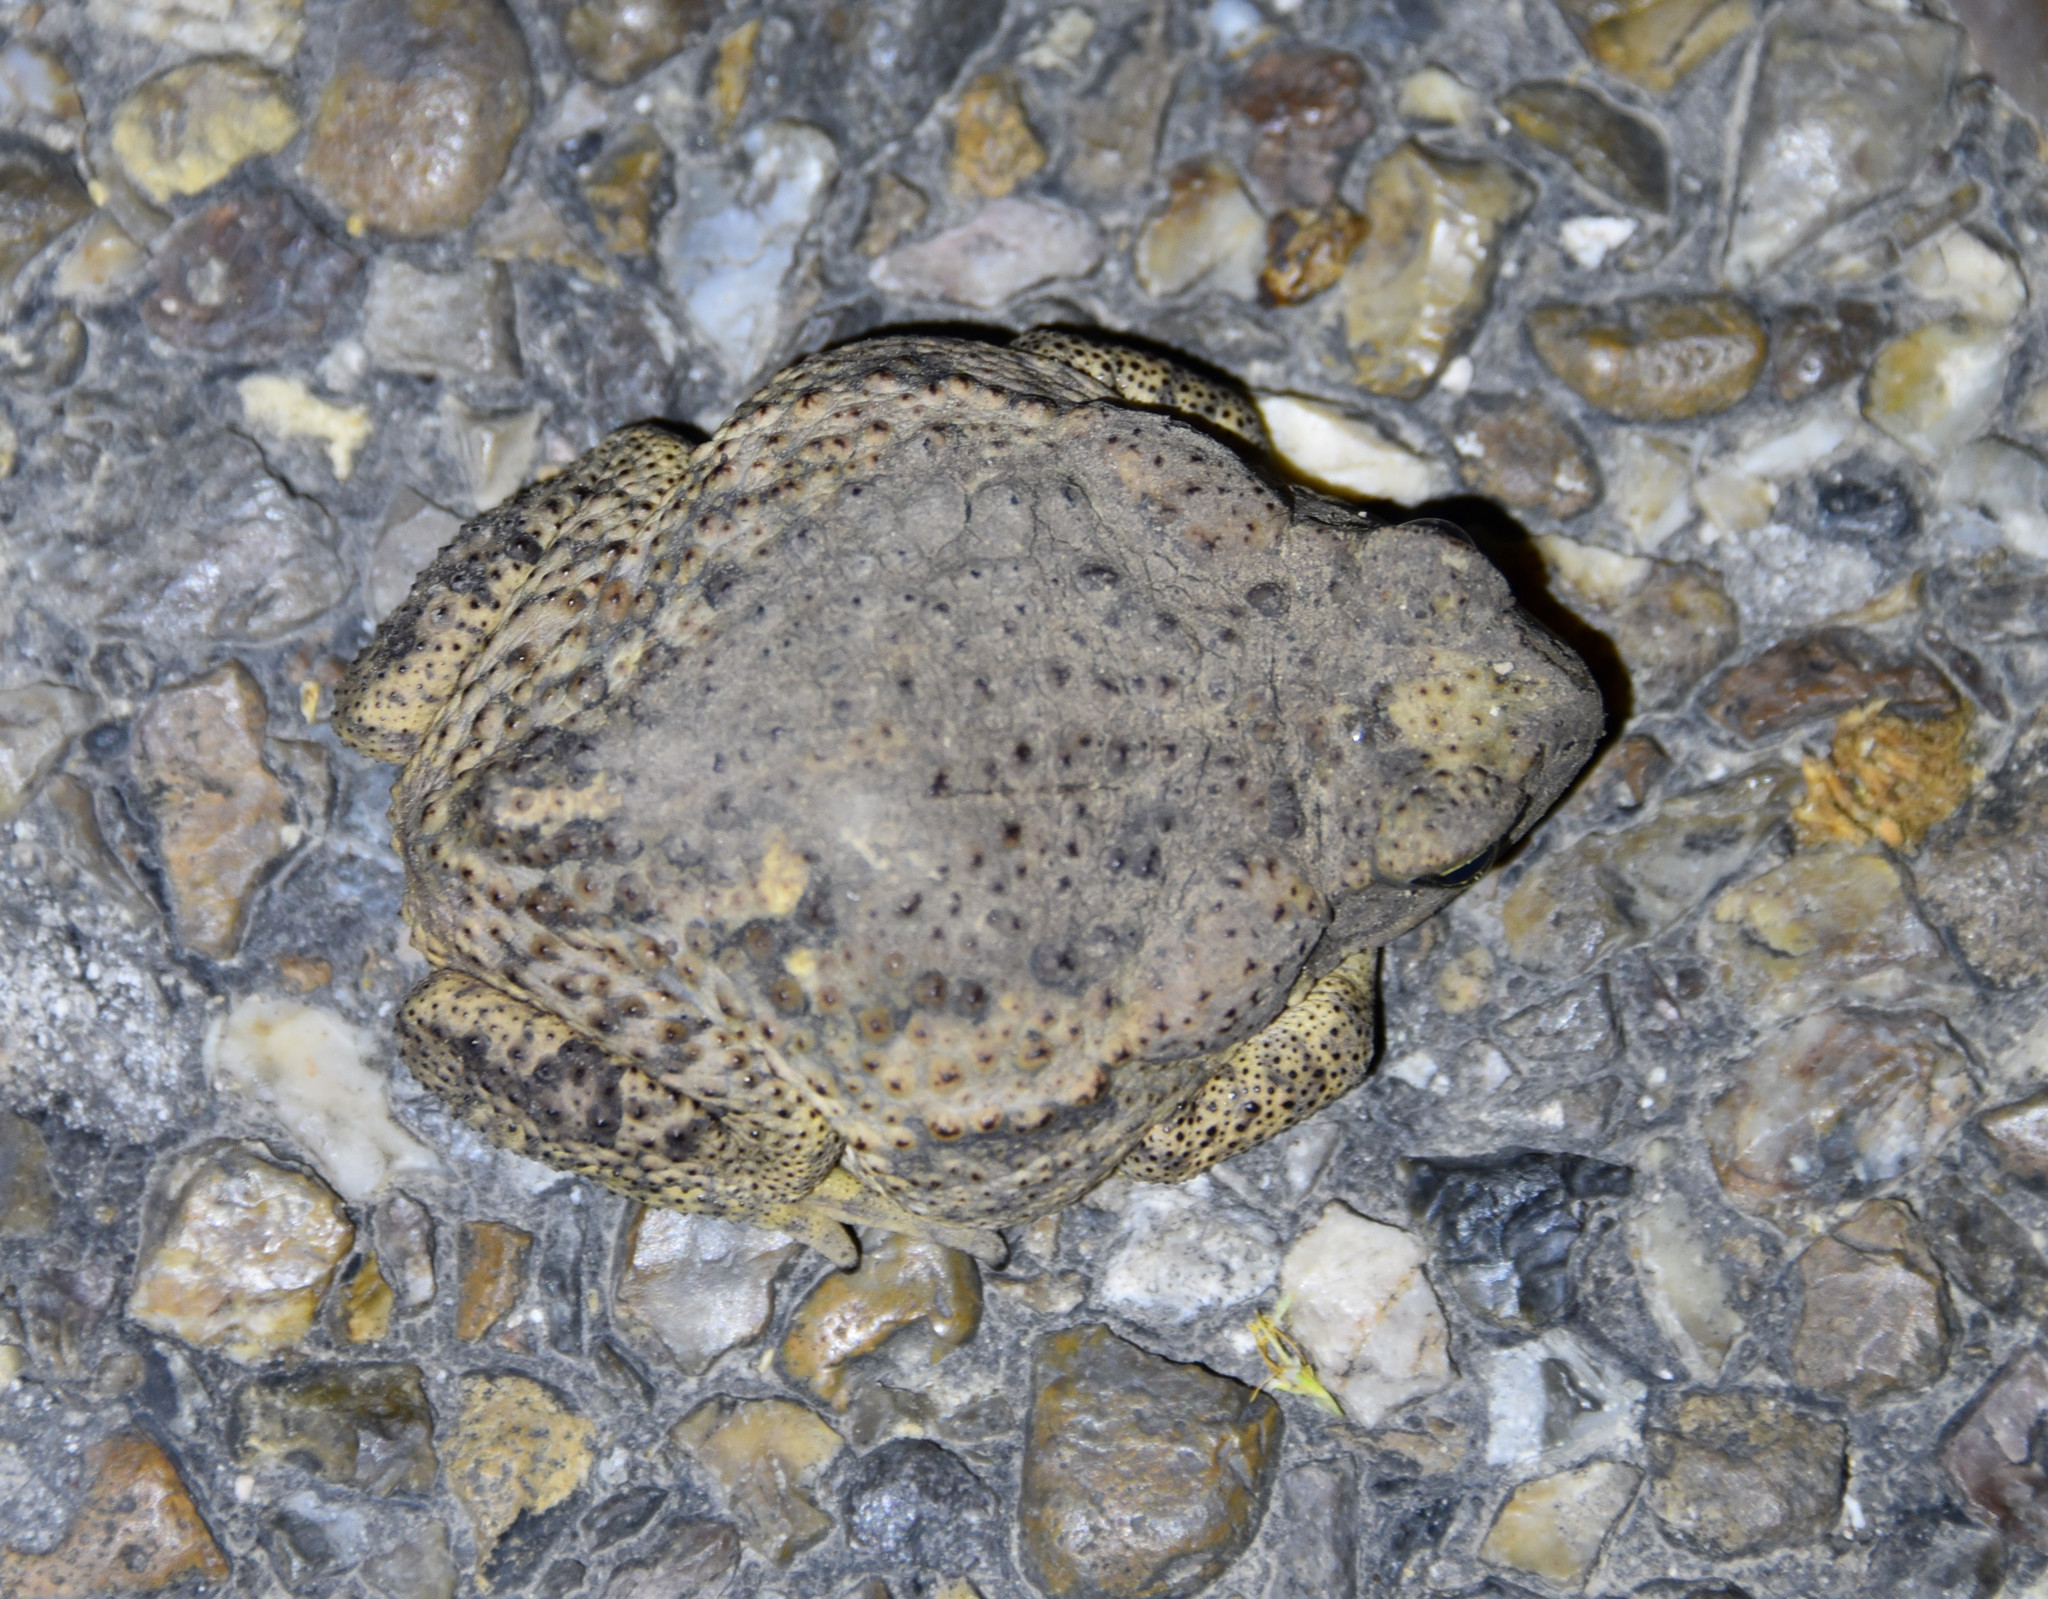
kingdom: Animalia
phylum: Chordata
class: Amphibia
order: Anura
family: Bufonidae
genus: Rhinella
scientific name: Rhinella horribilis
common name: Mesoamerican cane toad
